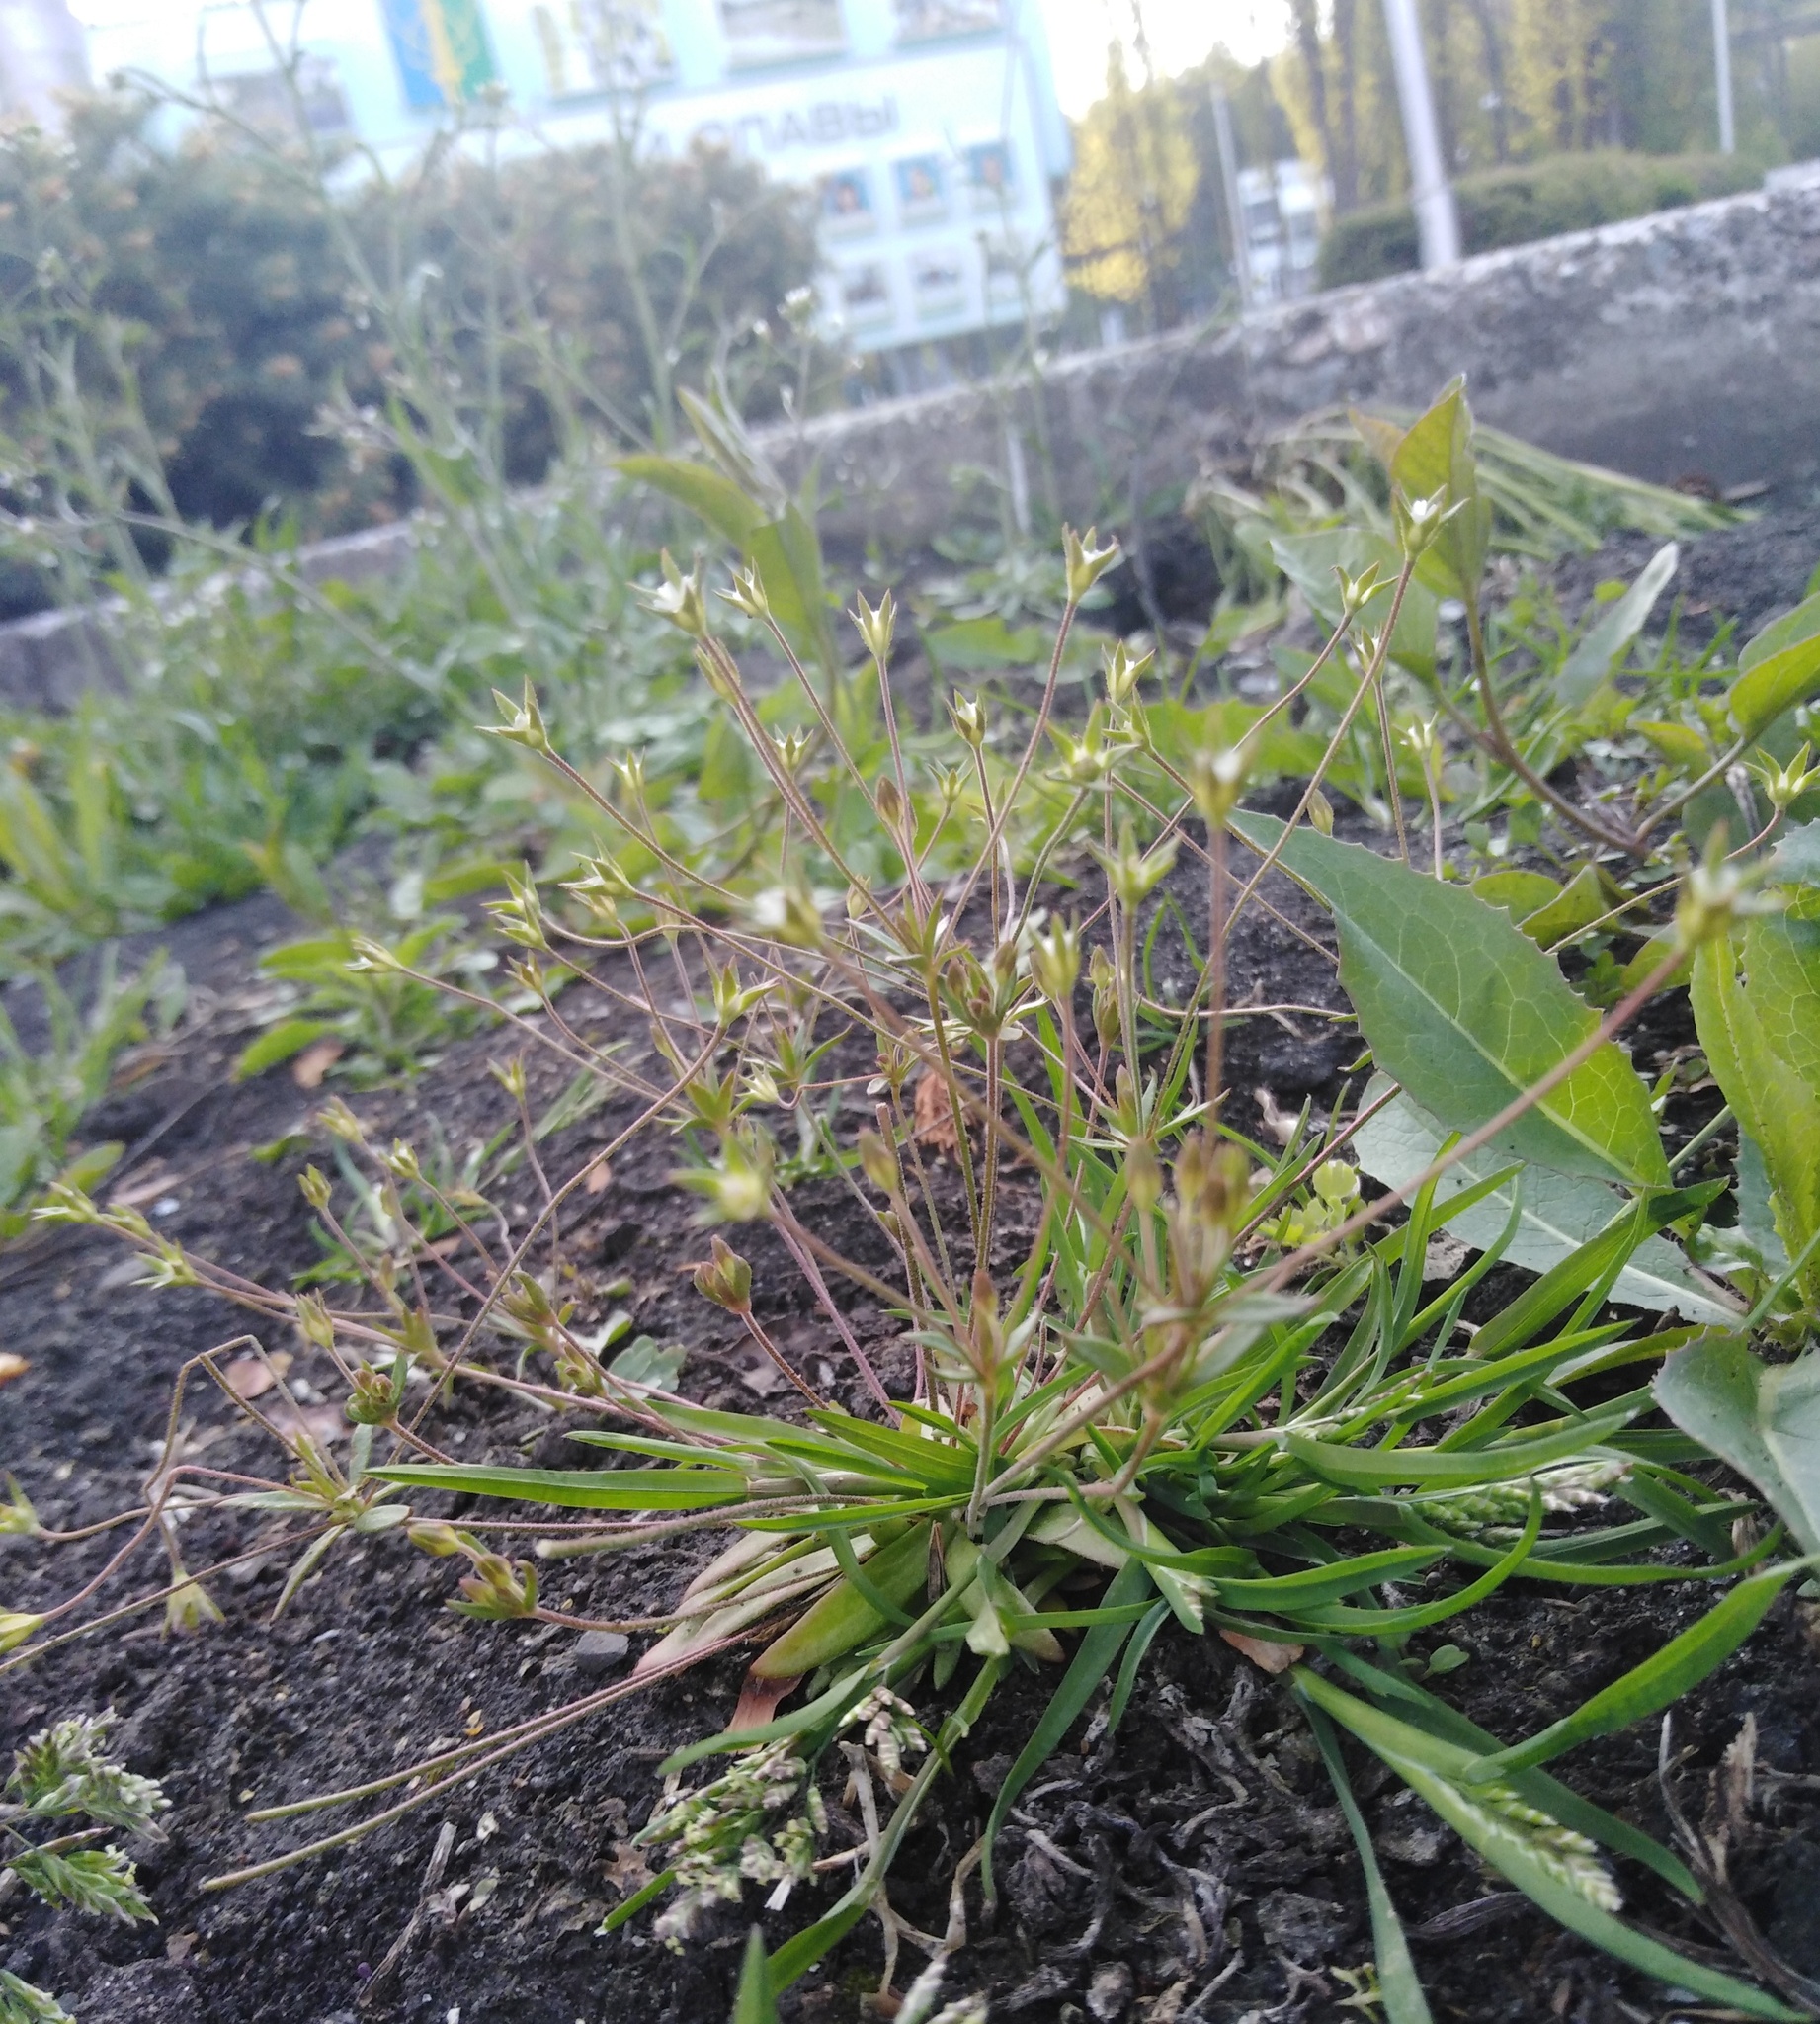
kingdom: Plantae
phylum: Tracheophyta
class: Magnoliopsida
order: Ericales
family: Primulaceae
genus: Androsace
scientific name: Androsace elongata
